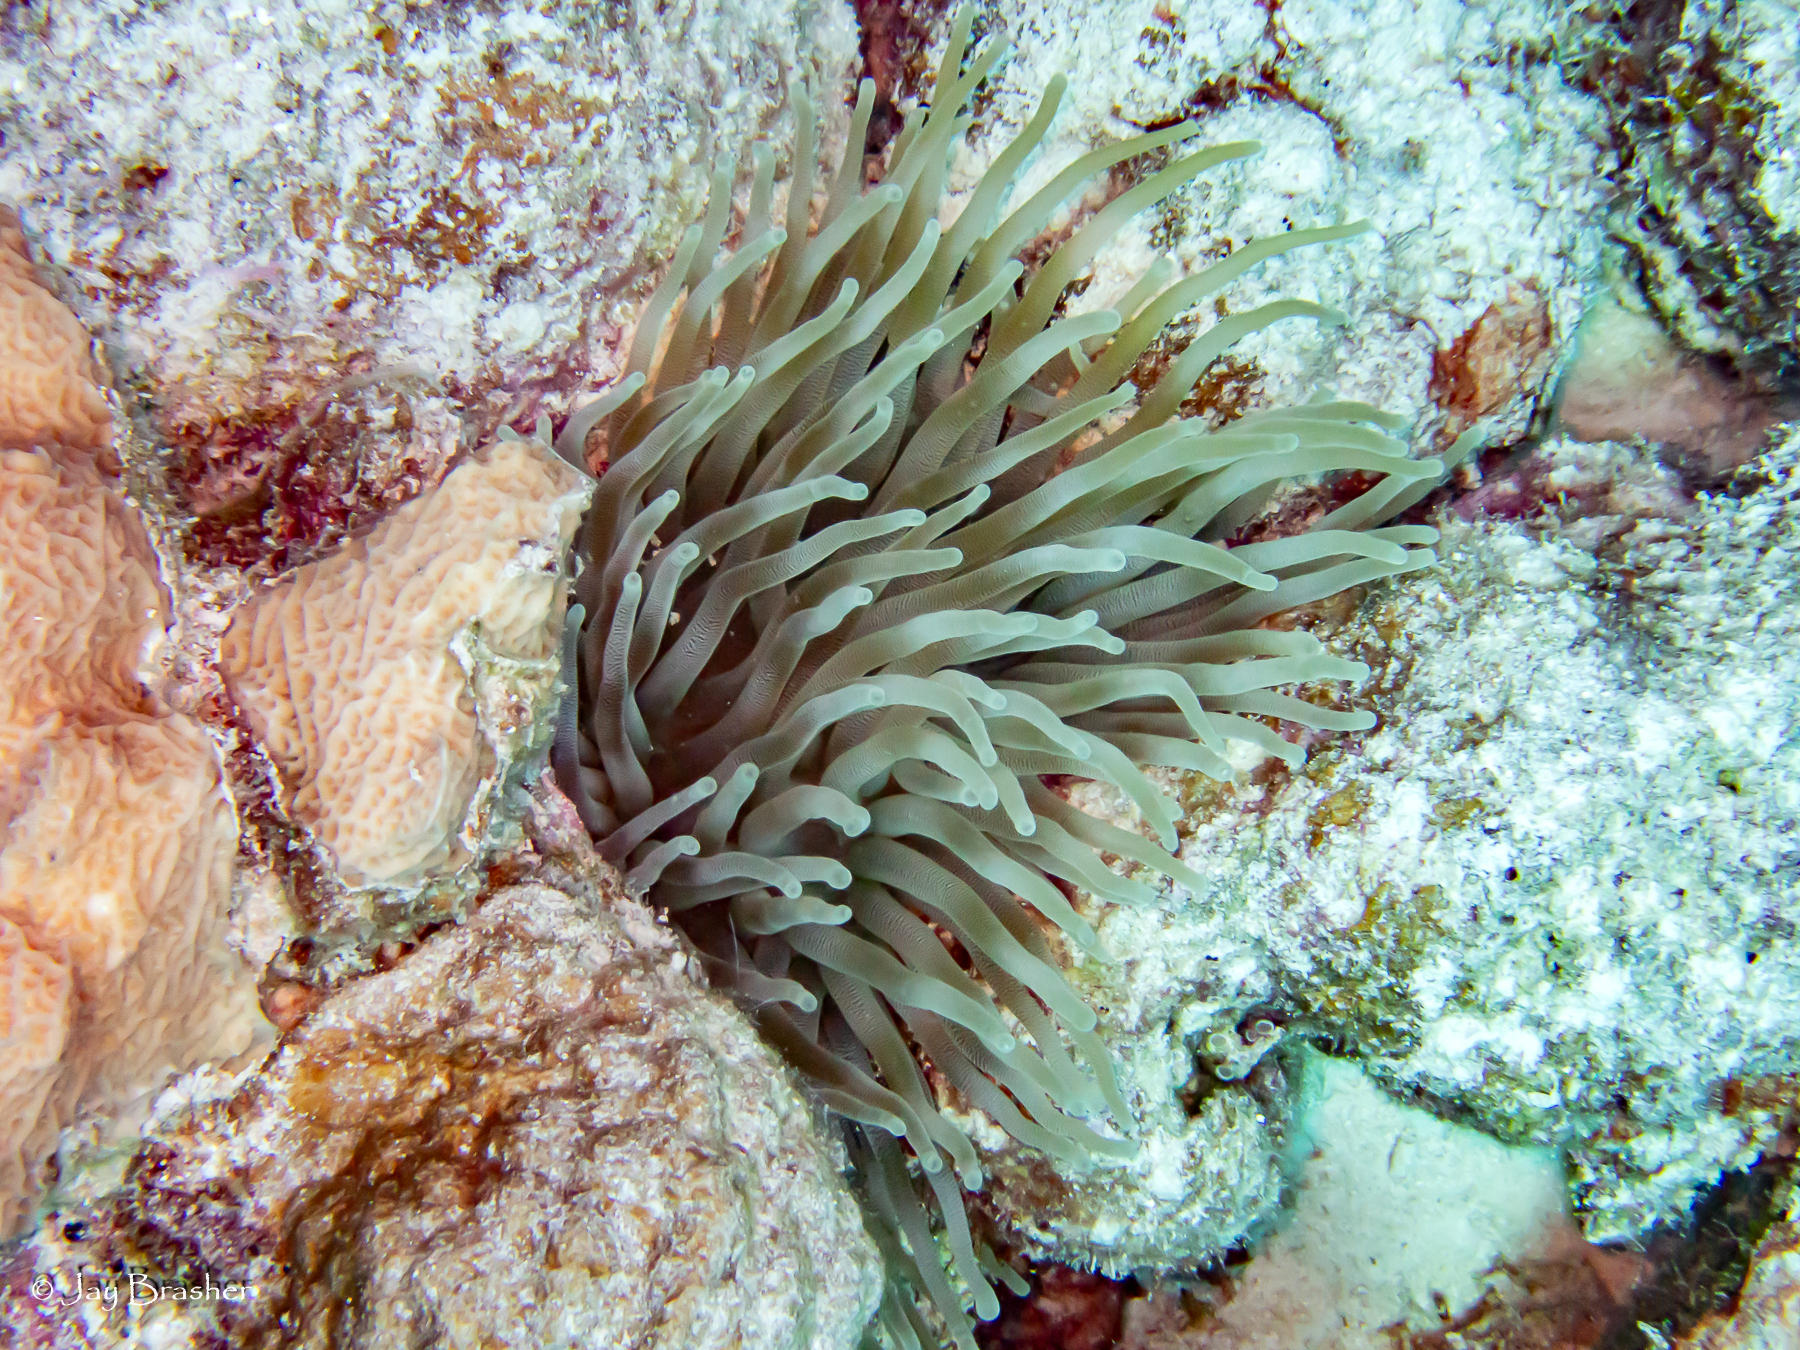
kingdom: Animalia
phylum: Cnidaria
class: Anthozoa
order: Actiniaria
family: Actiniidae
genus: Condylactis
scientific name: Condylactis gigantea
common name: Giant caribbean anemone
